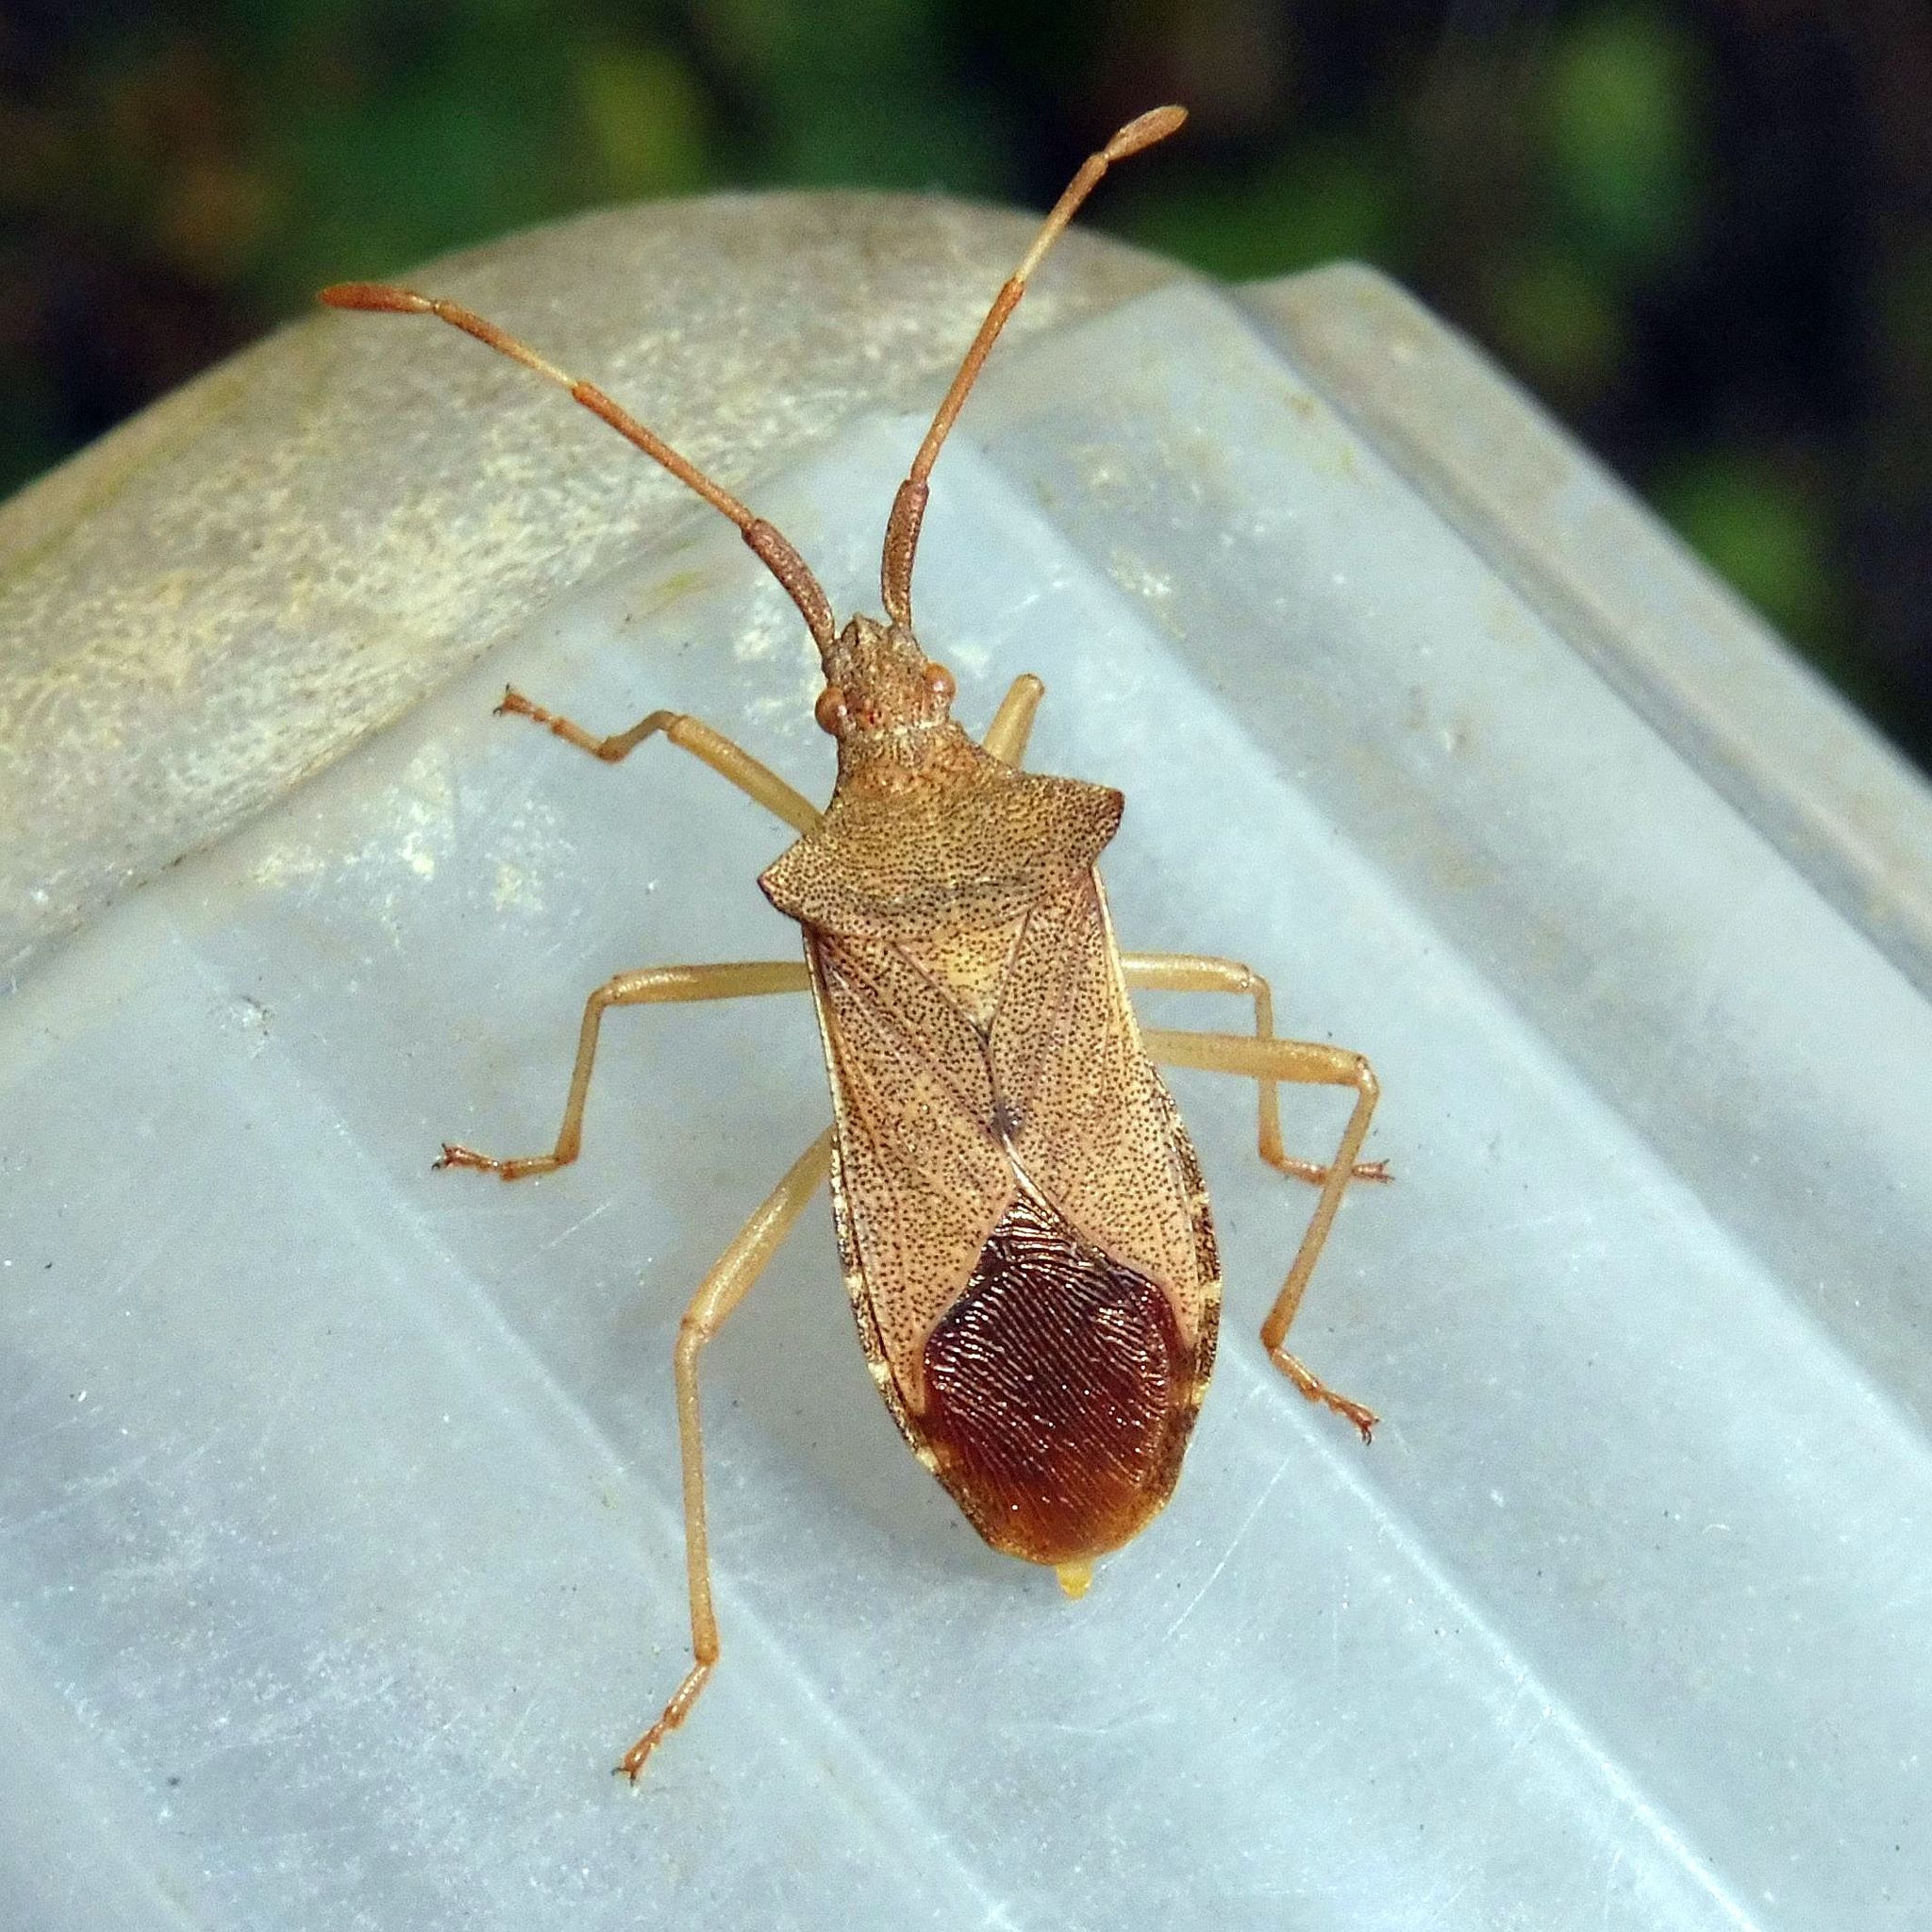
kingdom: Animalia
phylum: Arthropoda
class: Insecta
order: Hemiptera
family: Coreidae
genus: Gonocerus
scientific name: Gonocerus acuteangulatus
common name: Box bug
